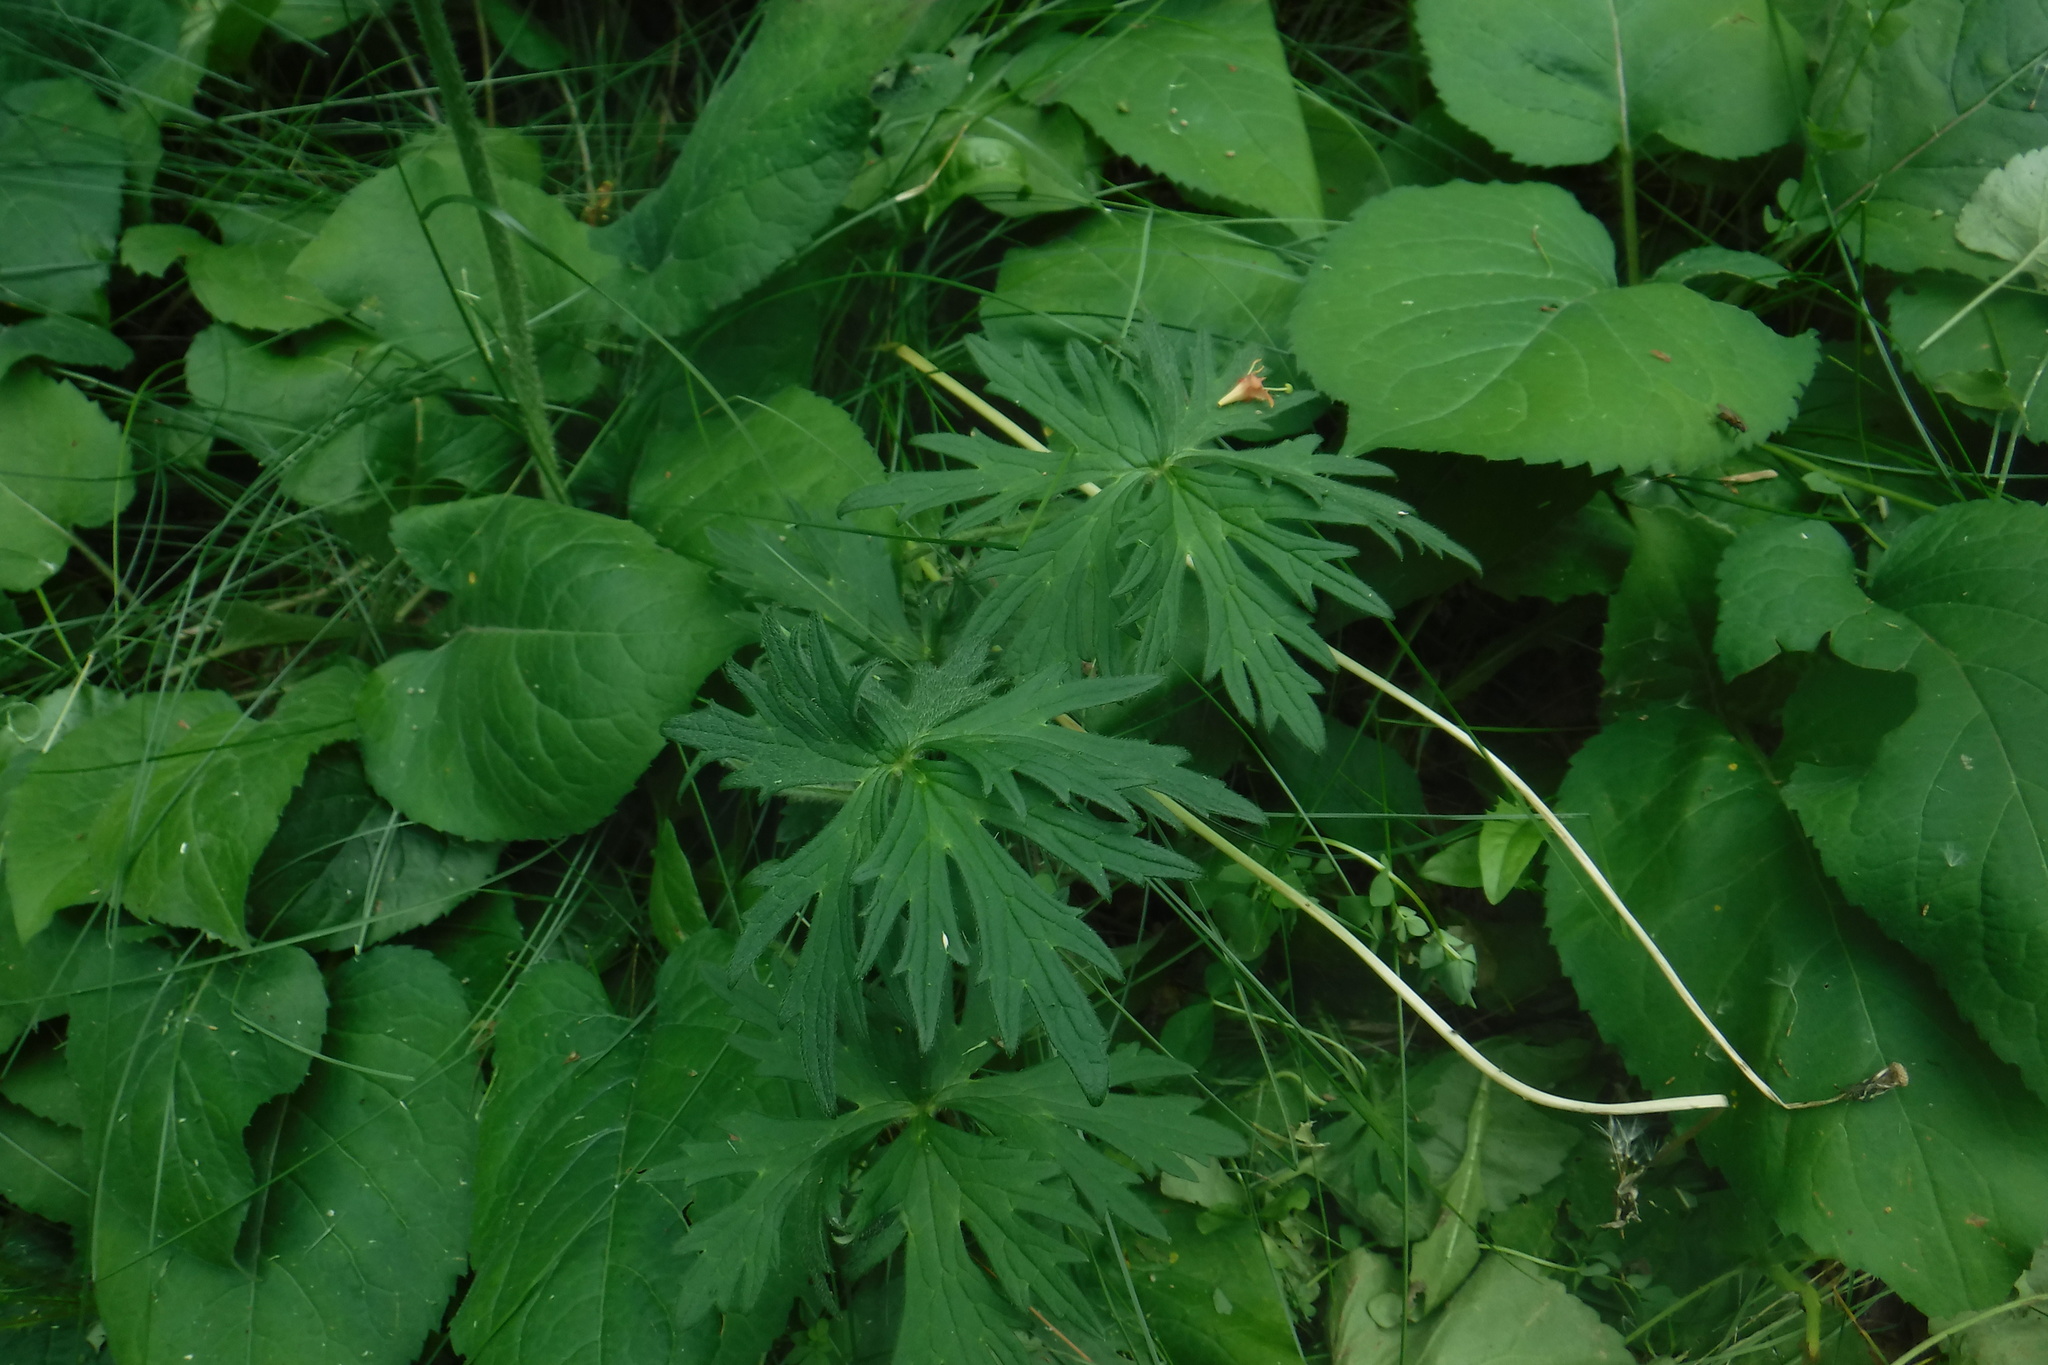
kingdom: Plantae
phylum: Tracheophyta
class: Magnoliopsida
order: Ranunculales
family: Ranunculaceae
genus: Ranunculus
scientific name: Ranunculus acris
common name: Meadow buttercup
